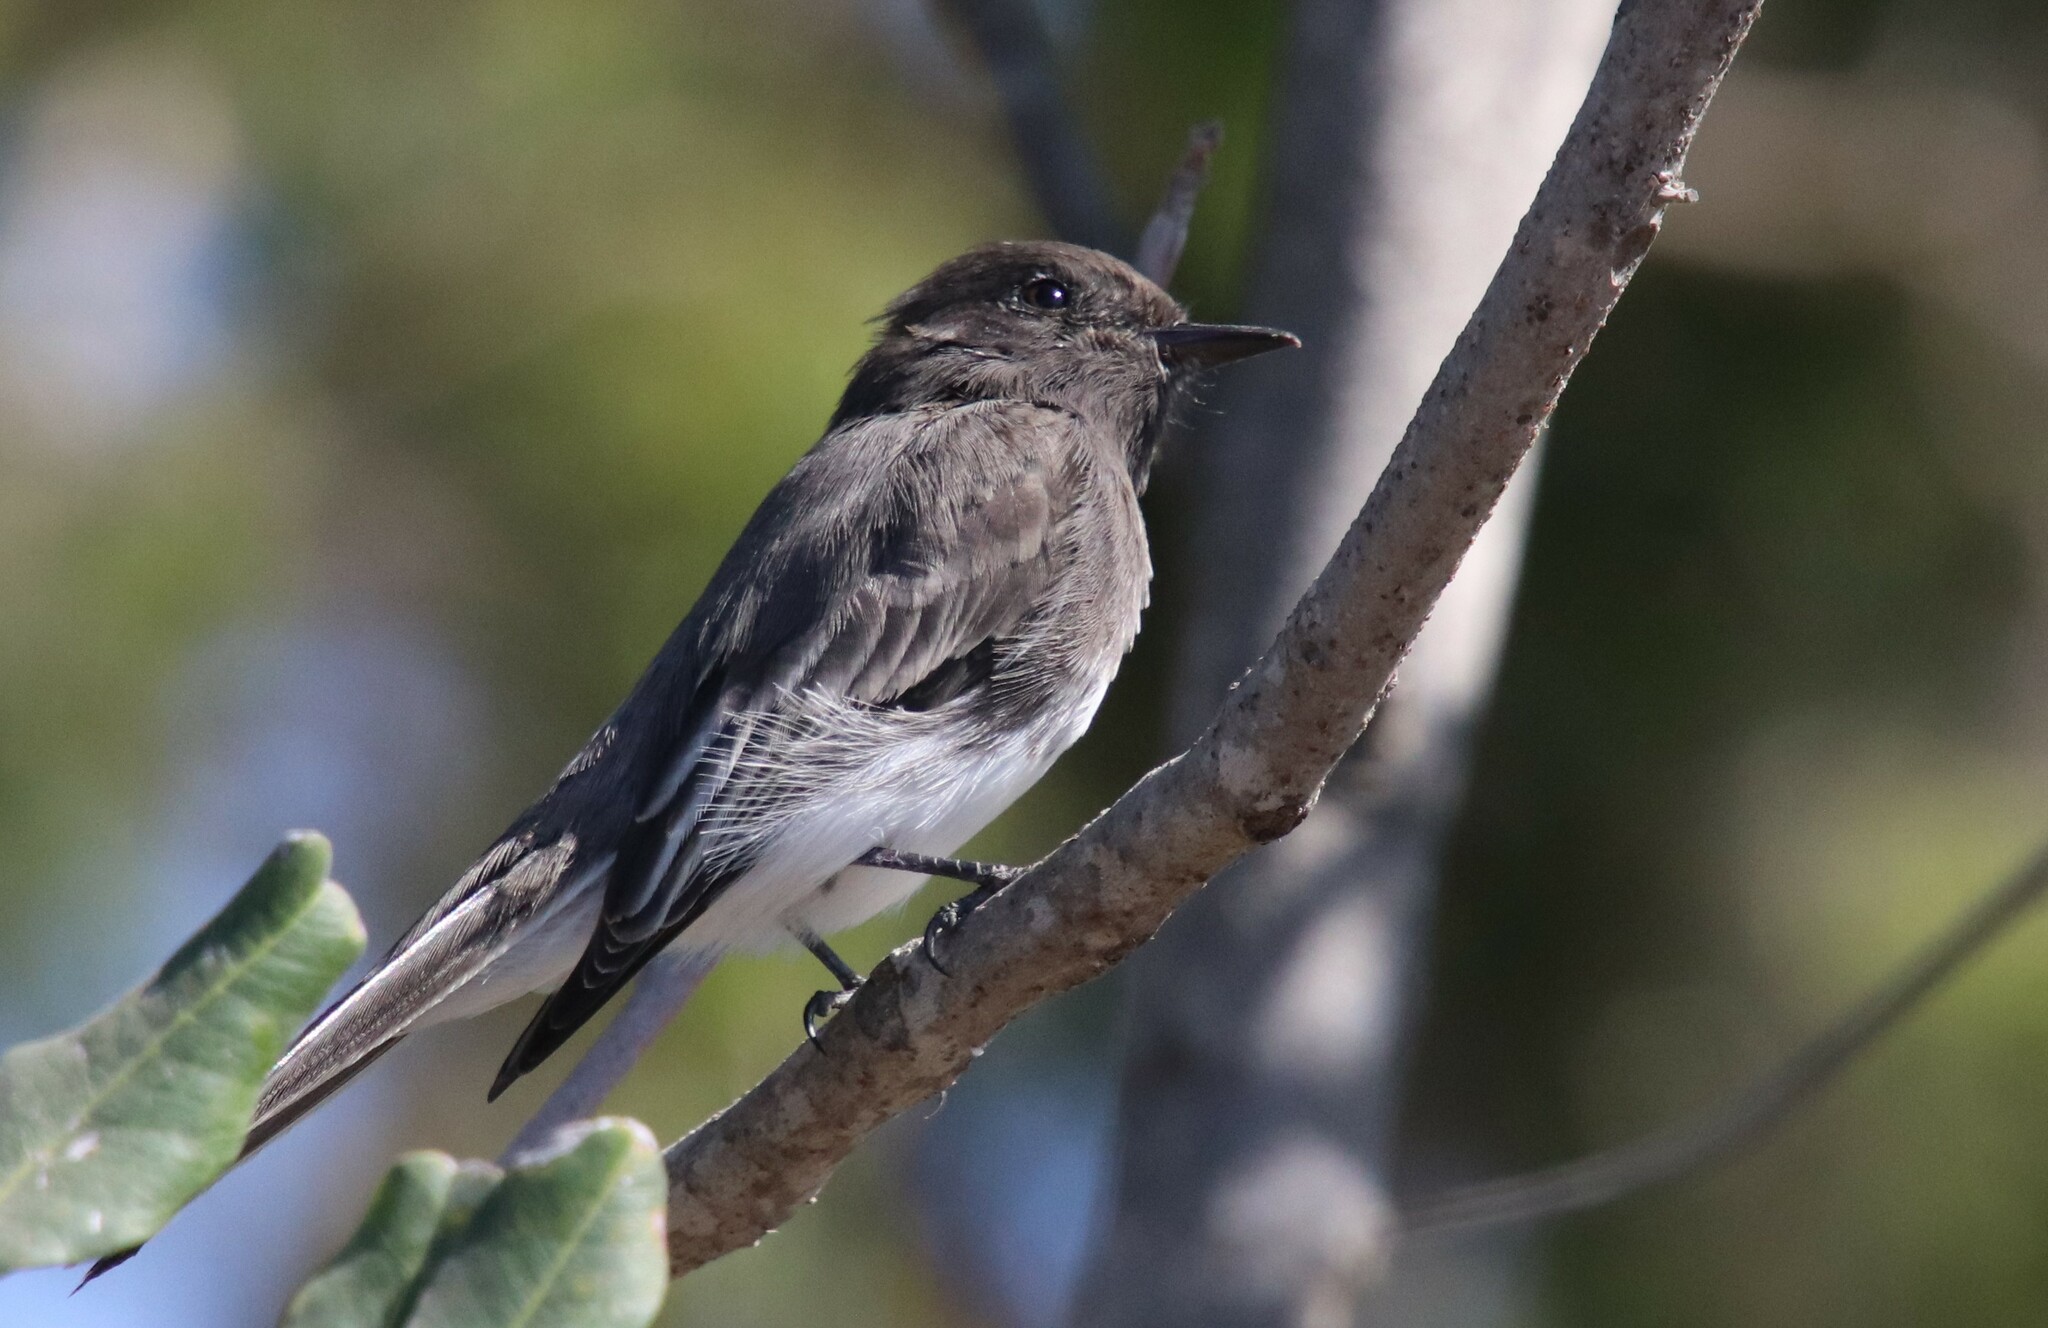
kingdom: Animalia
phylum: Chordata
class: Aves
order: Passeriformes
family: Tyrannidae
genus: Sayornis
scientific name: Sayornis nigricans
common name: Black phoebe
